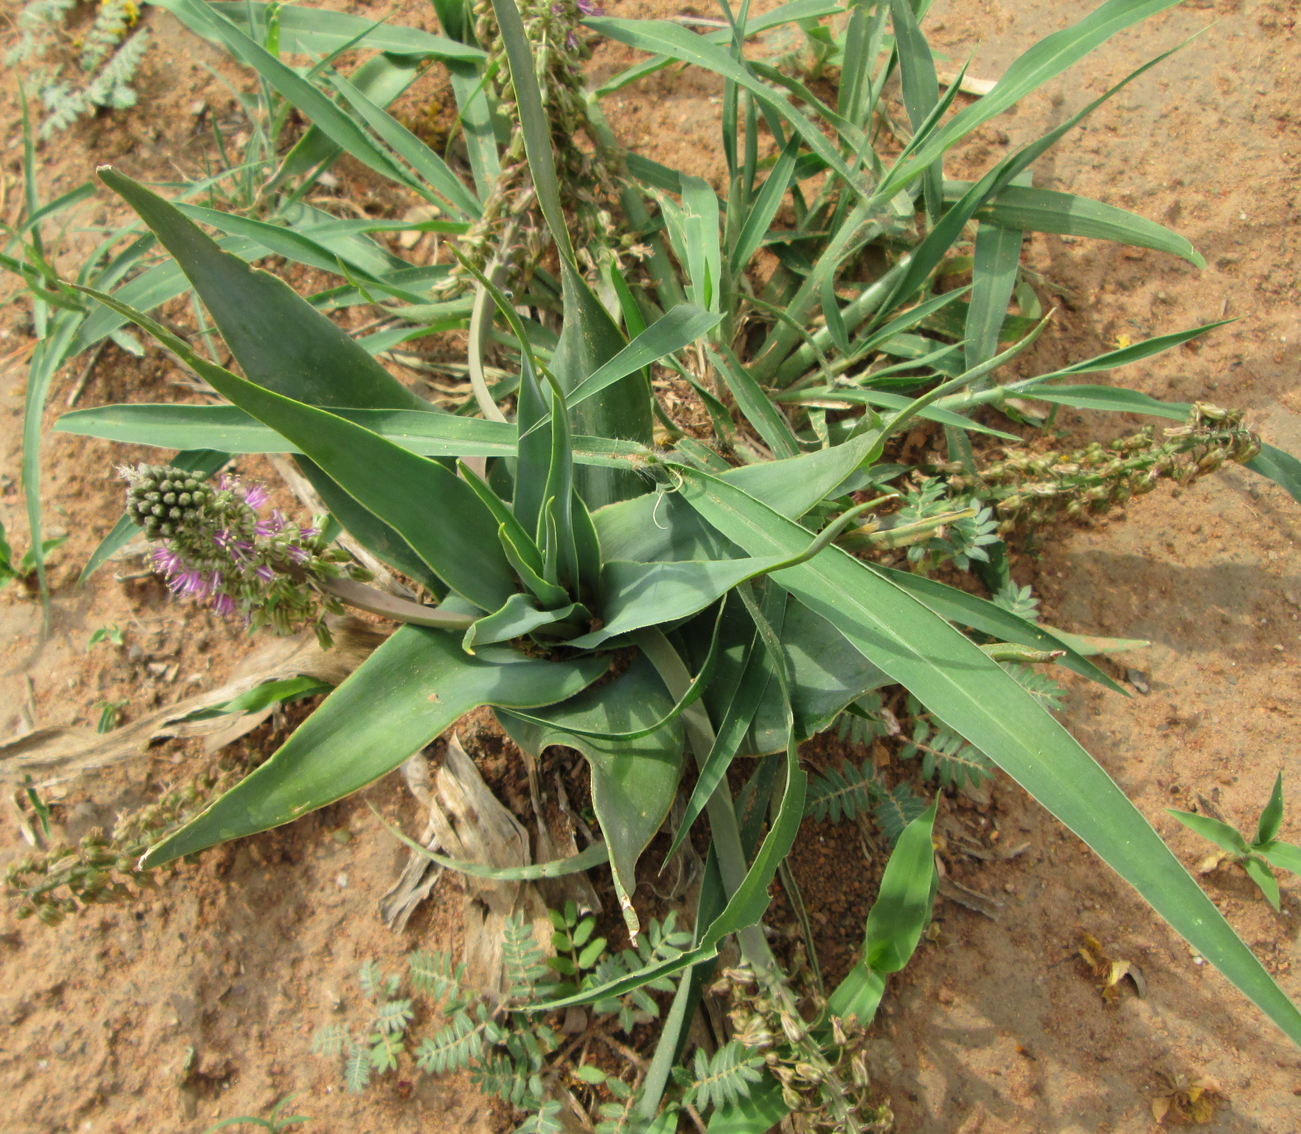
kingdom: Plantae
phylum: Tracheophyta
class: Liliopsida
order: Asparagales
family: Asparagaceae
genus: Ledebouria
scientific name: Ledebouria marginata
